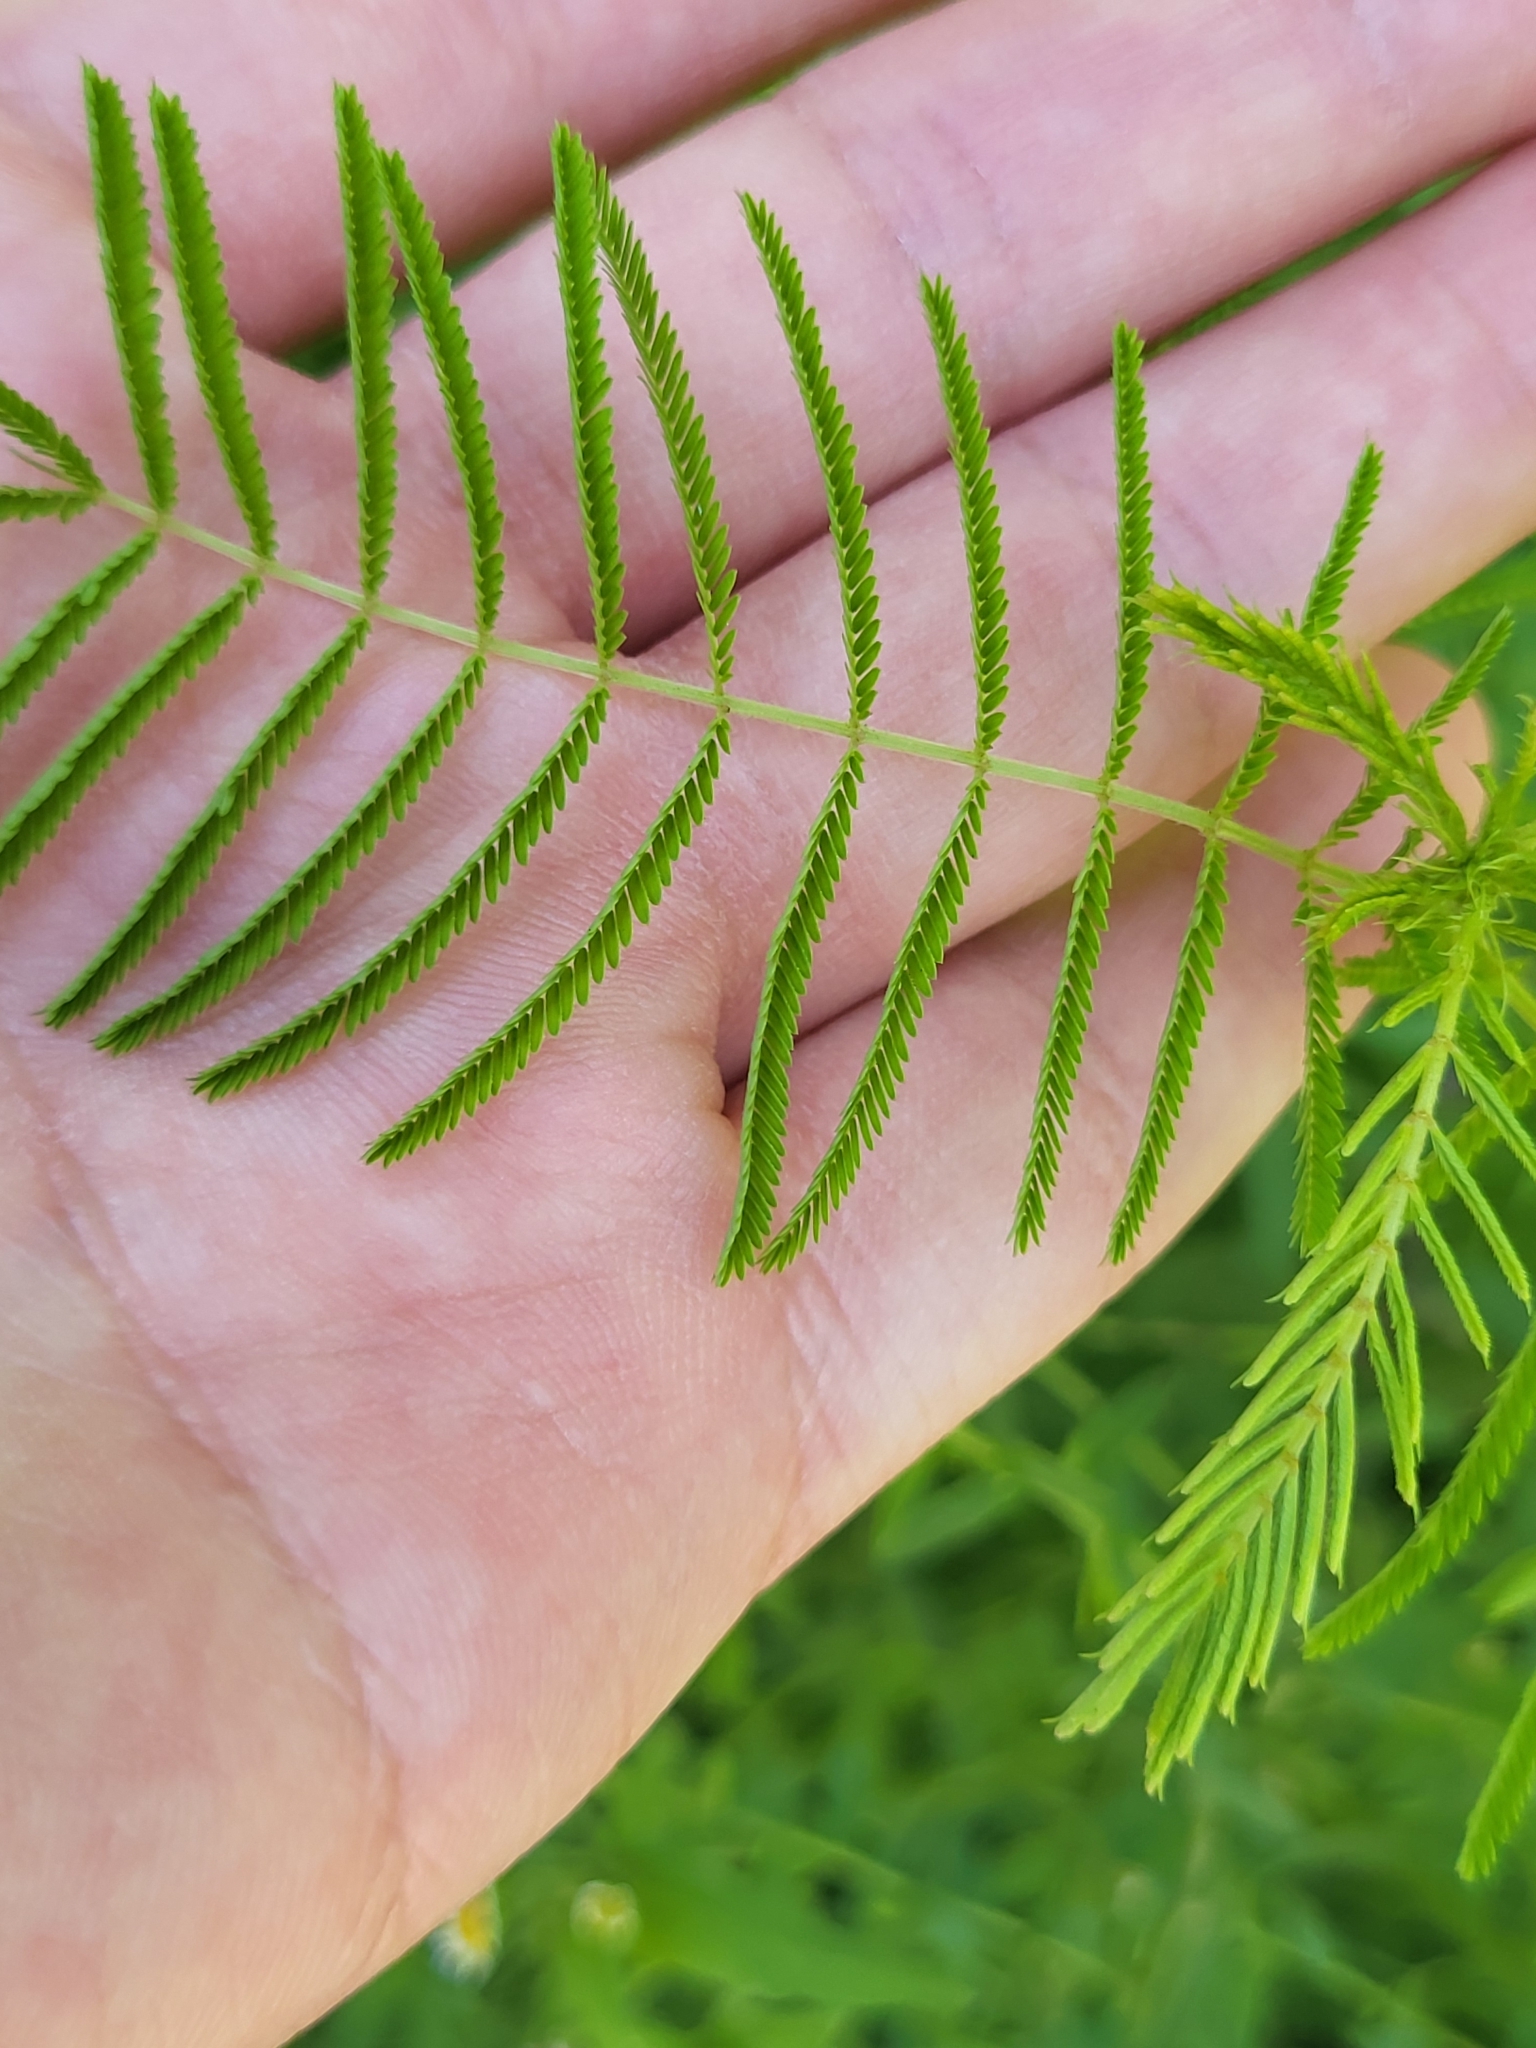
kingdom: Plantae
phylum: Tracheophyta
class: Magnoliopsida
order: Fabales
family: Fabaceae
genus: Desmanthus
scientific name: Desmanthus illinoensis
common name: Illinois bundle-flower
